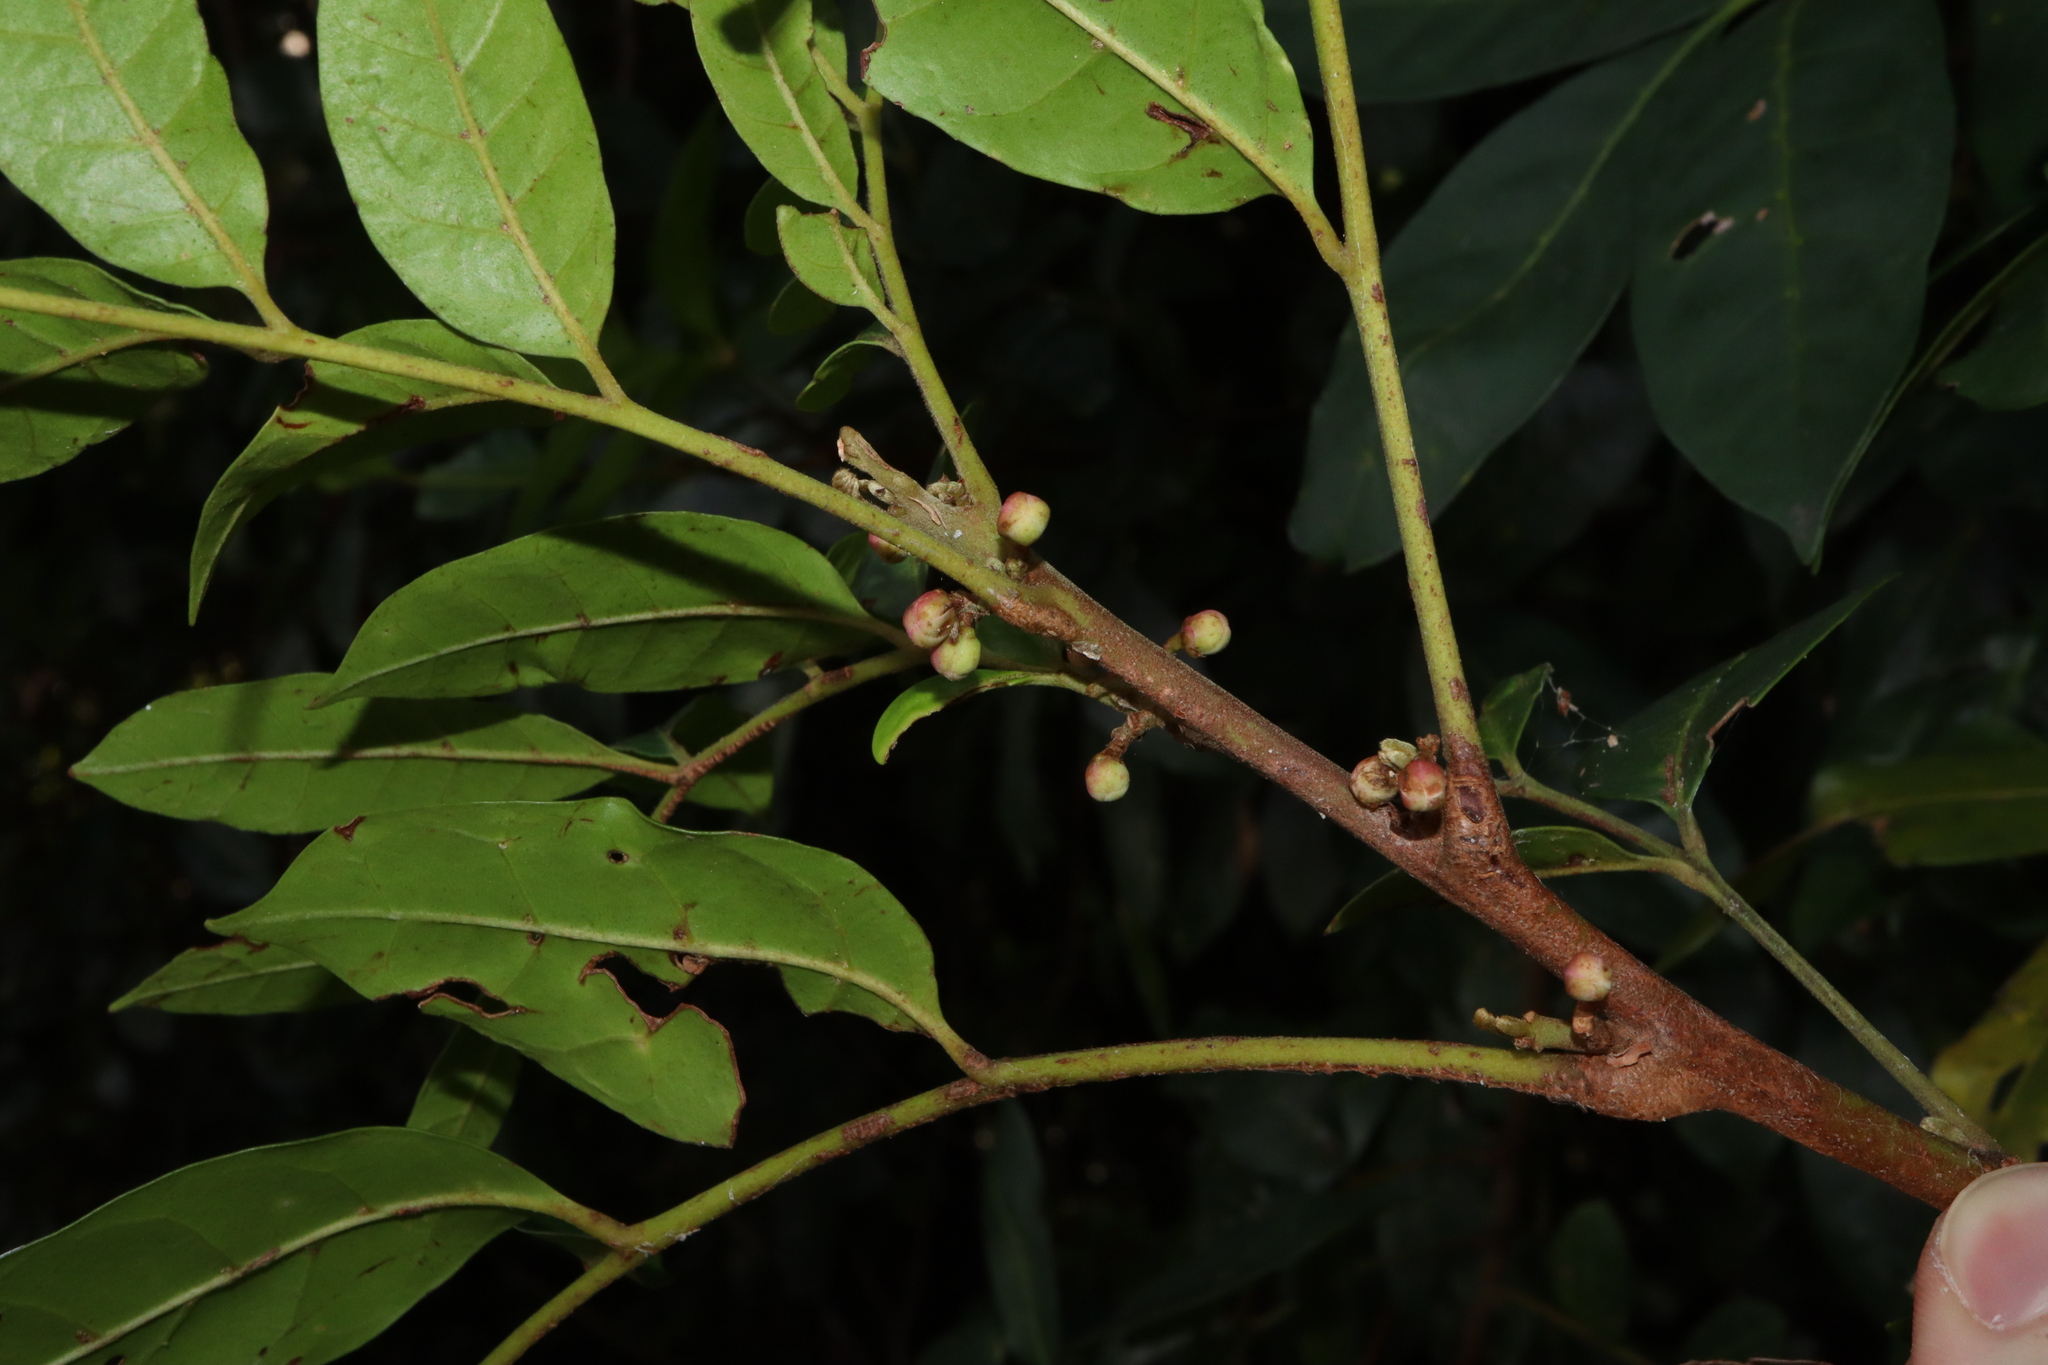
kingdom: Plantae
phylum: Tracheophyta
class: Magnoliopsida
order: Sapindales
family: Meliaceae
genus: Synoum
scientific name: Synoum glandulosum
